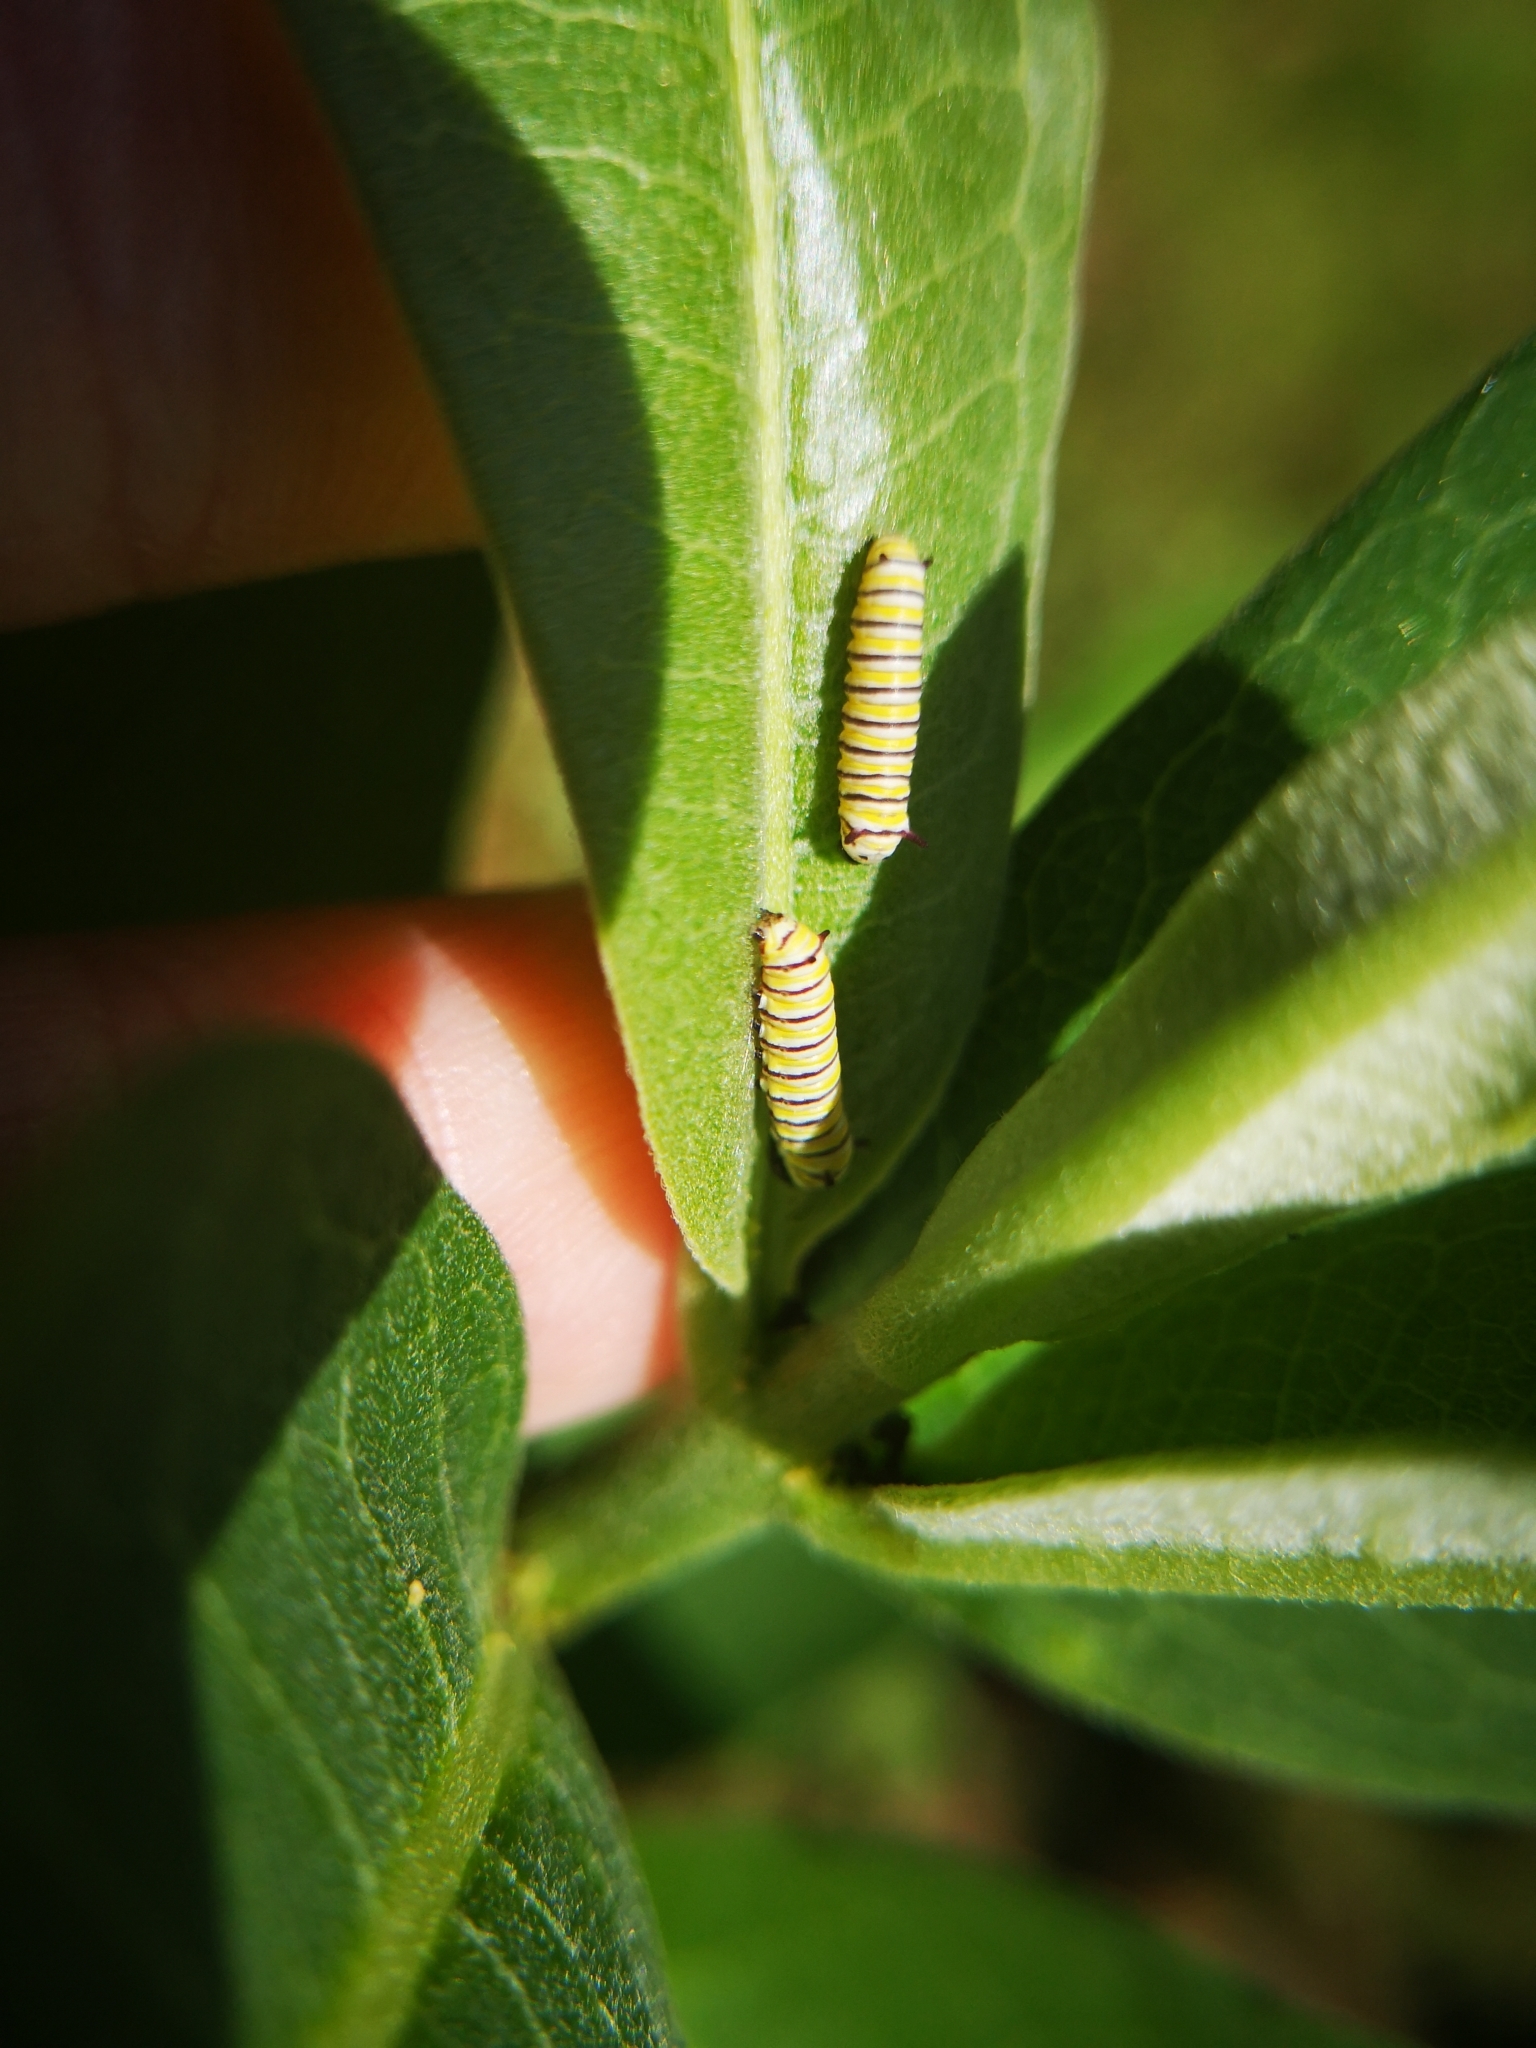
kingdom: Animalia
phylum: Arthropoda
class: Insecta
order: Lepidoptera
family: Nymphalidae
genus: Danaus
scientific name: Danaus plexippus
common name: Monarch
